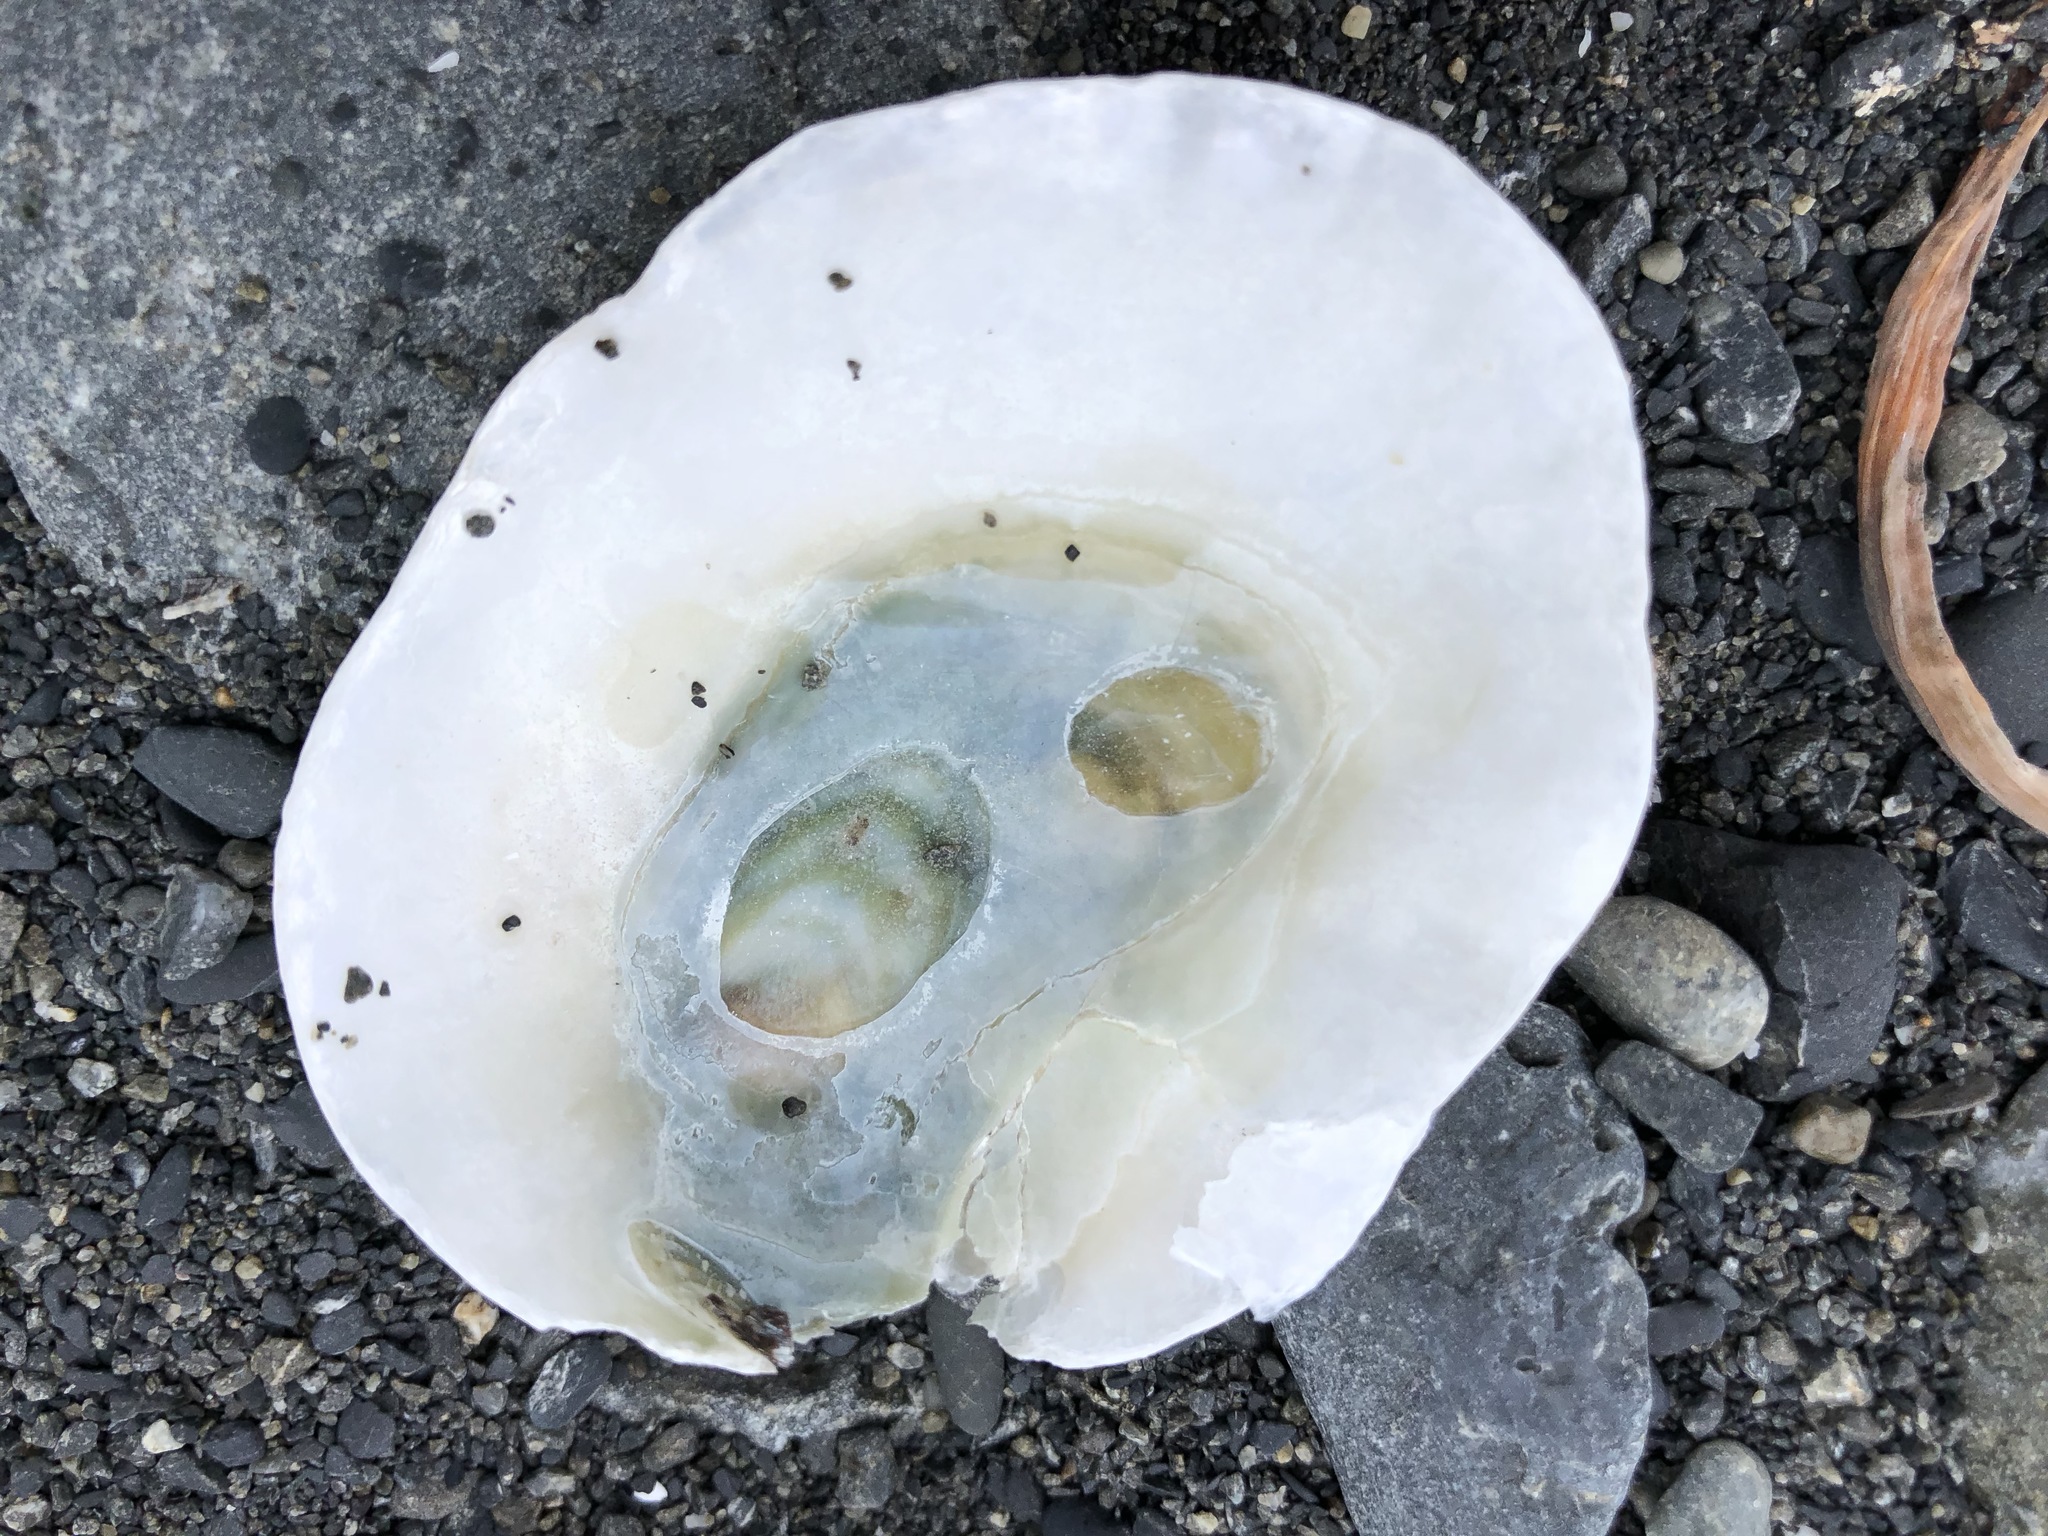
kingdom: Animalia
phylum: Mollusca
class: Bivalvia
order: Pectinida
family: Anomiidae
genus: Pododesmus
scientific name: Pododesmus macrochisma
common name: Alaska jingle
